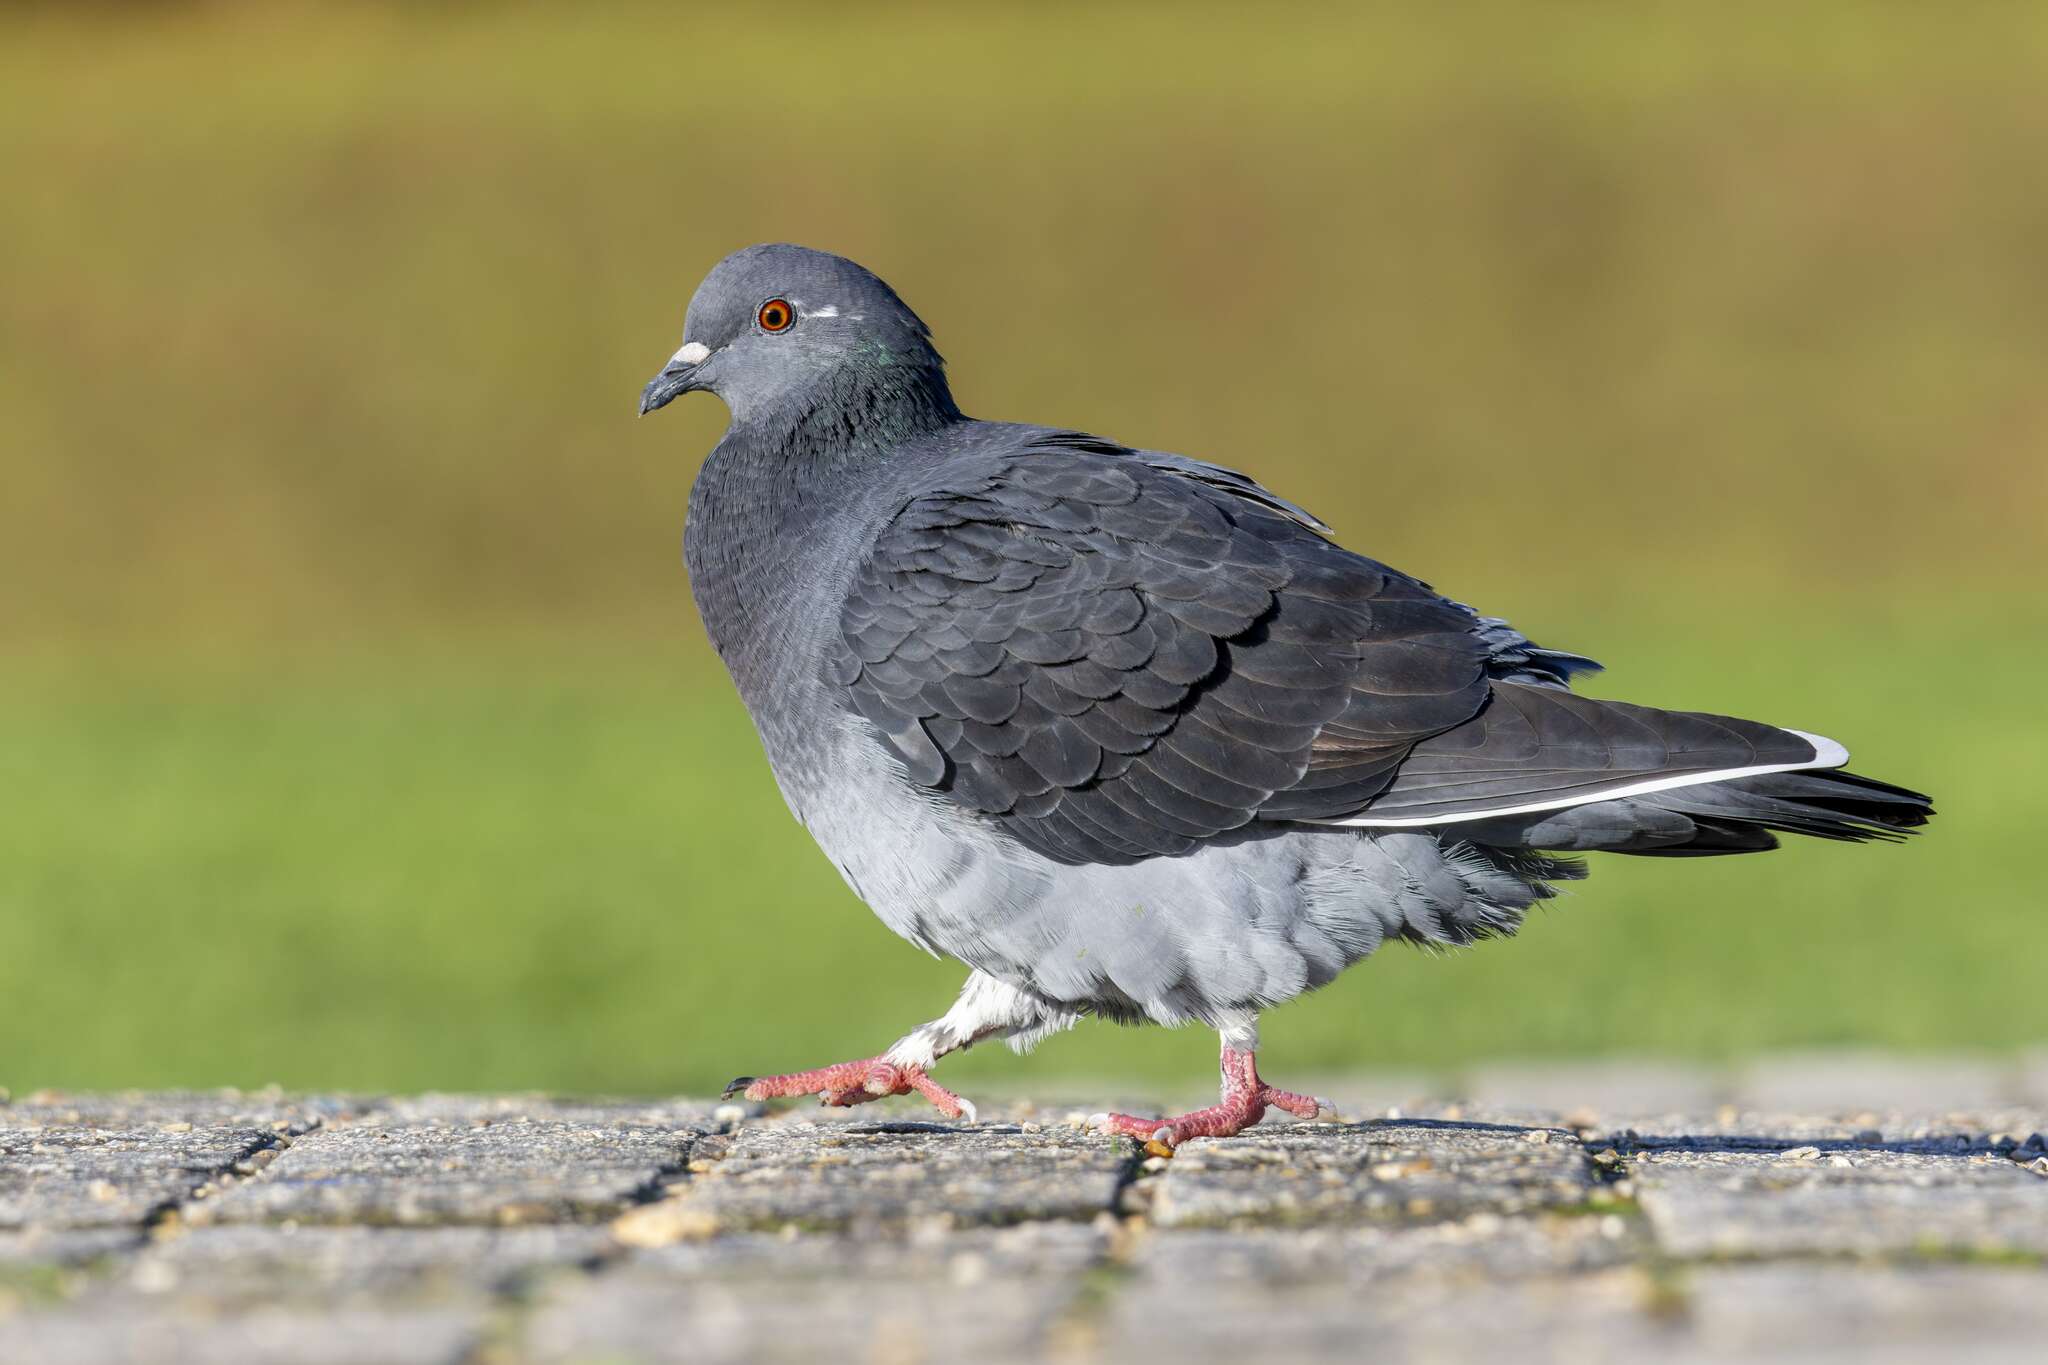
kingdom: Animalia
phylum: Chordata
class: Aves
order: Columbiformes
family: Columbidae
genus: Columba
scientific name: Columba livia
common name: Rock pigeon
